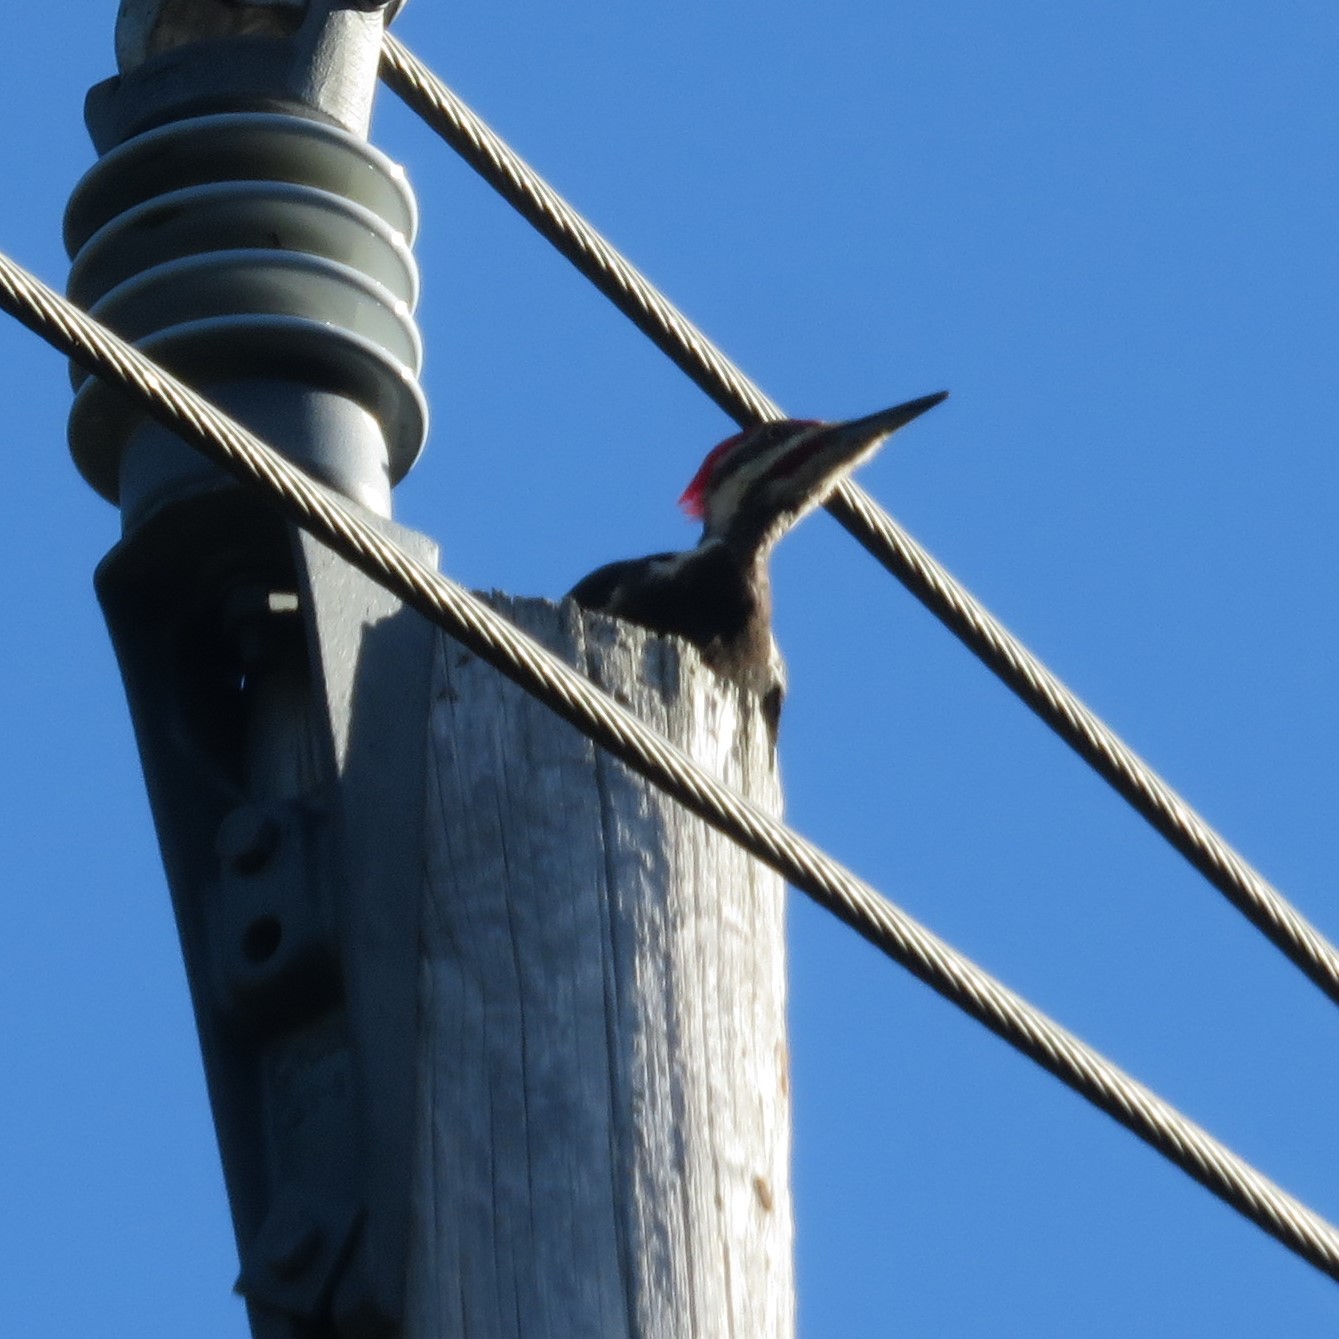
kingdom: Animalia
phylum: Chordata
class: Aves
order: Piciformes
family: Picidae
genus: Dryocopus
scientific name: Dryocopus pileatus
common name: Pileated woodpecker
